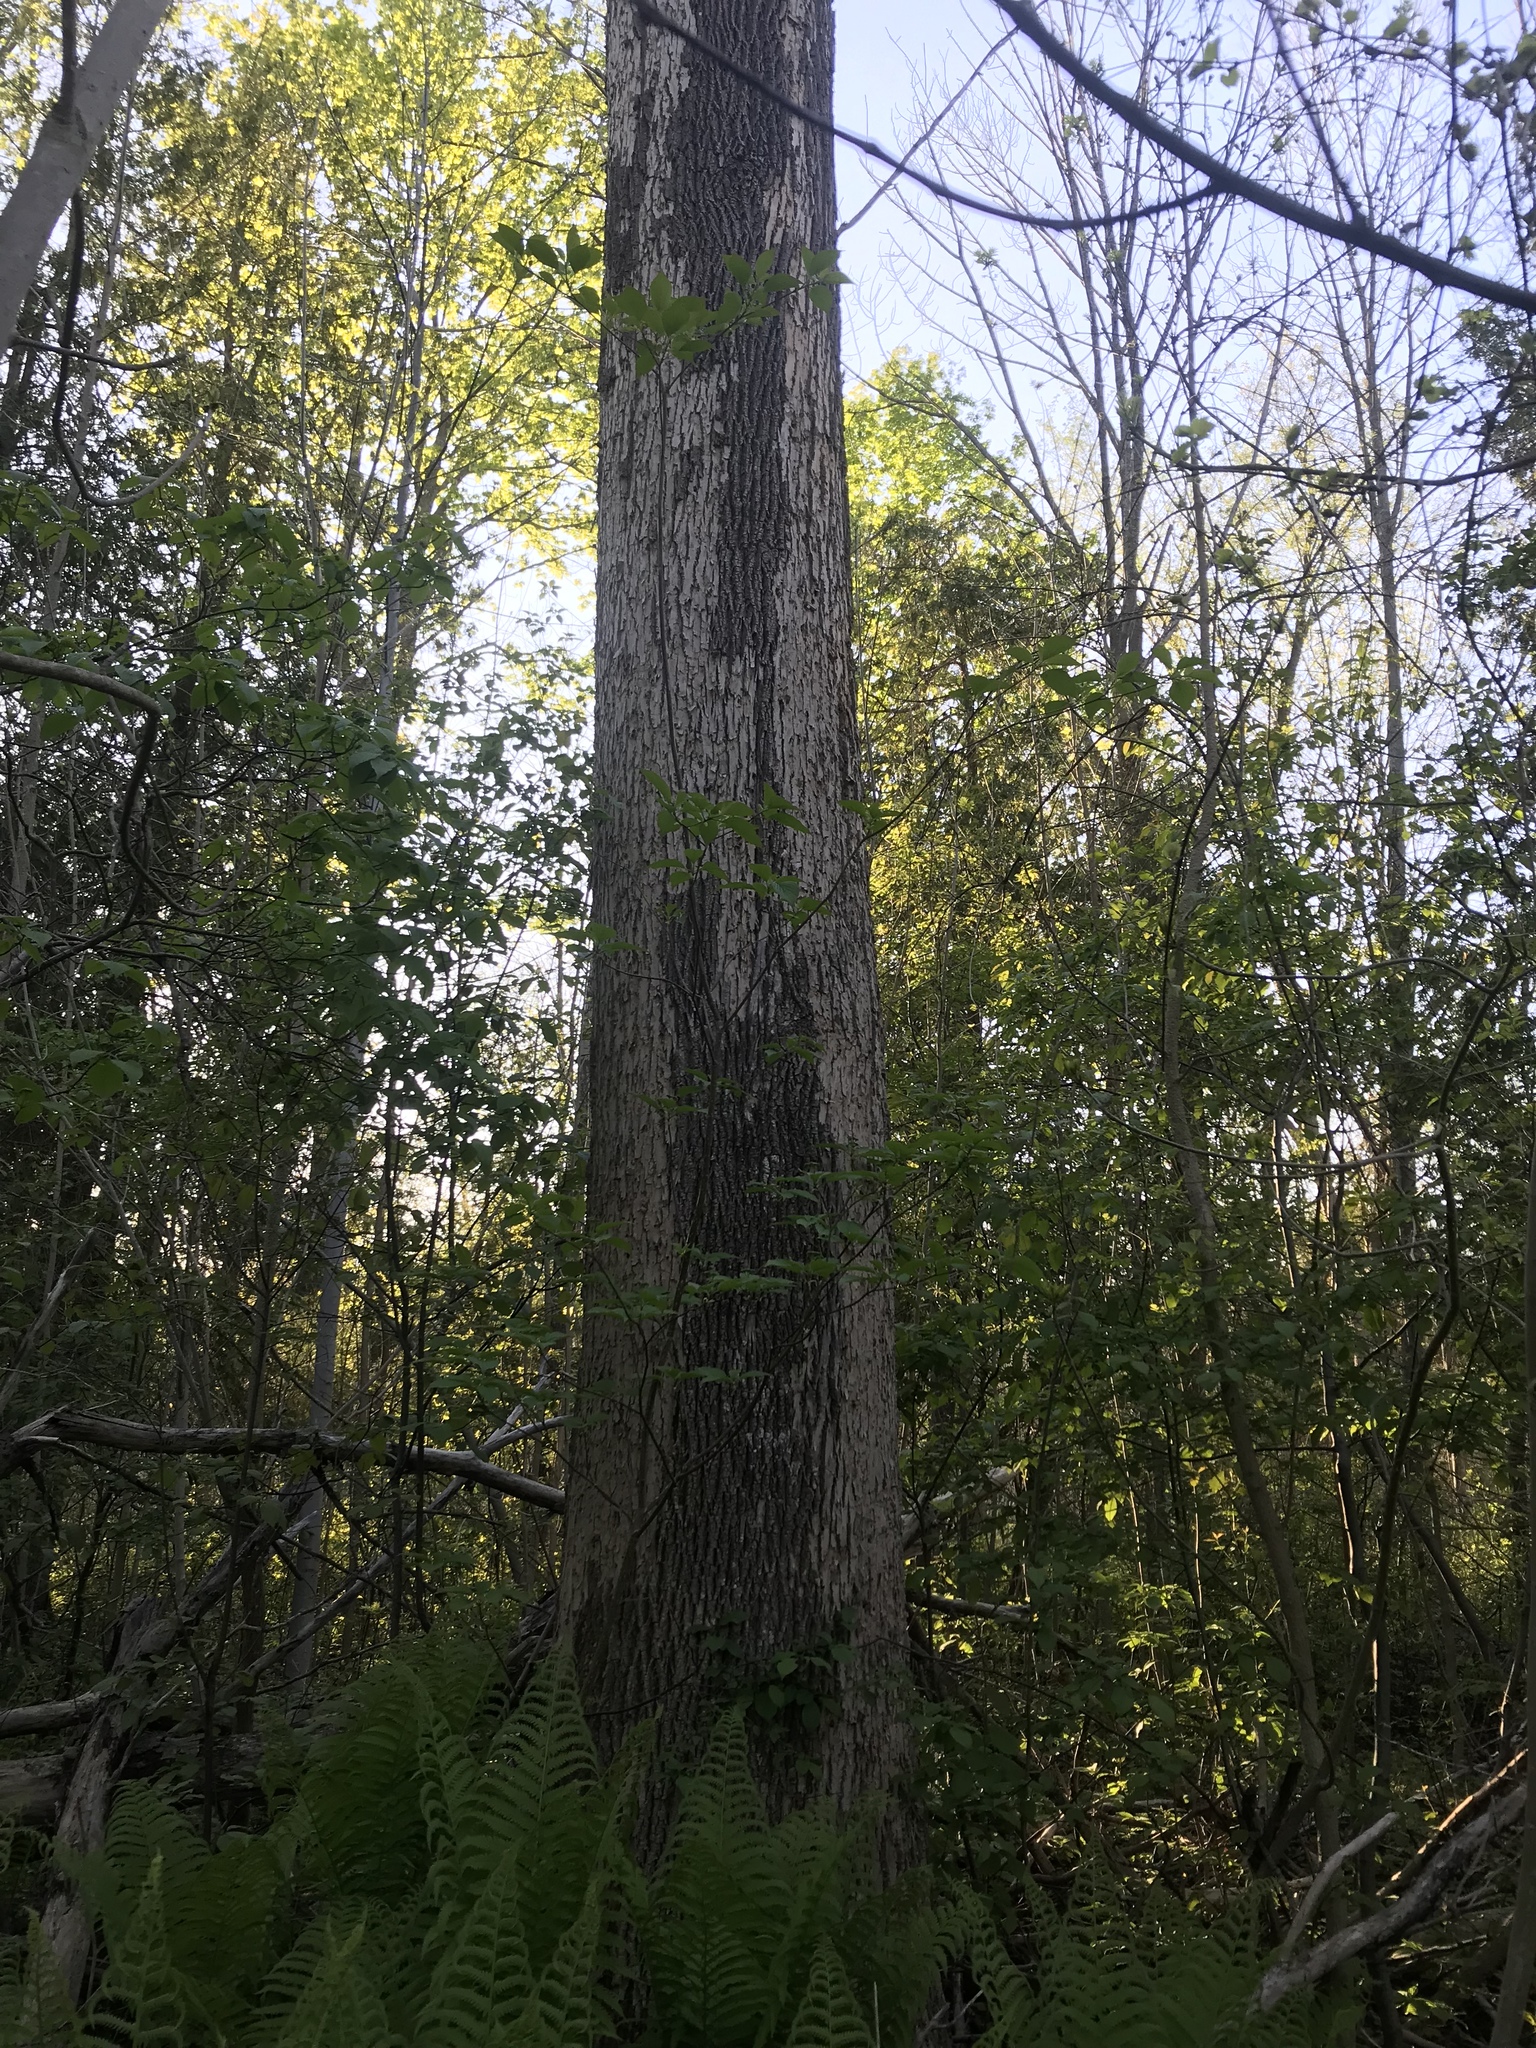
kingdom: Plantae
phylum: Tracheophyta
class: Magnoliopsida
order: Lamiales
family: Oleaceae
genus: Fraxinus
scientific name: Fraxinus pennsylvanica
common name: Green ash
